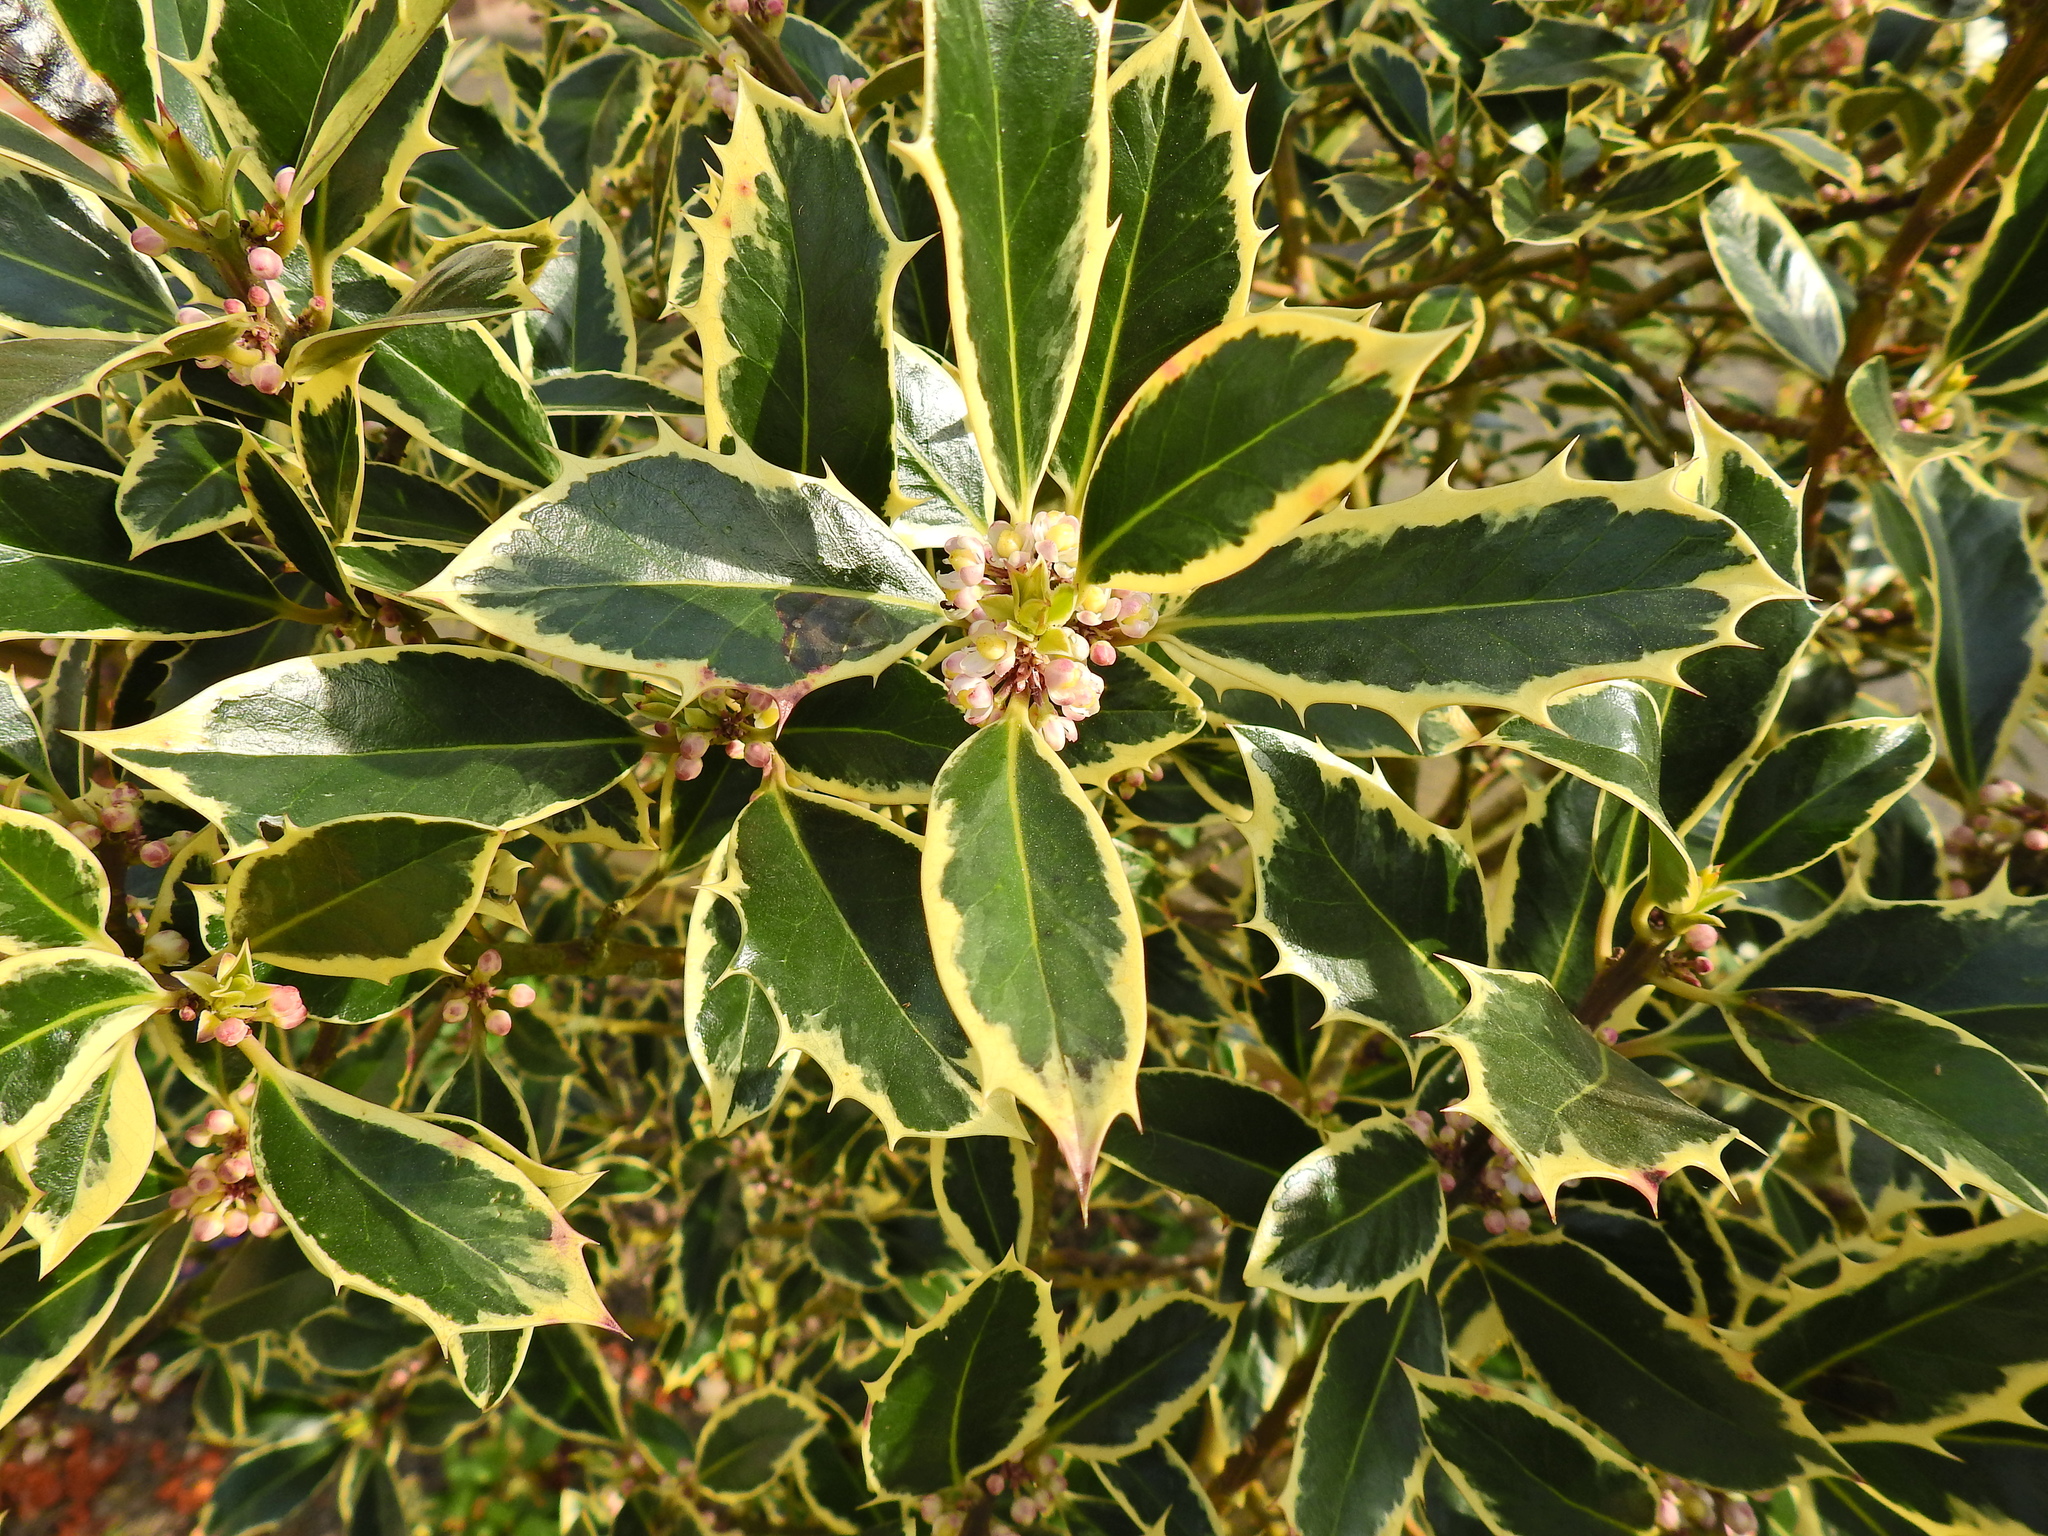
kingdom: Plantae
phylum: Tracheophyta
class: Magnoliopsida
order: Aquifoliales
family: Aquifoliaceae
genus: Ilex
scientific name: Ilex aquifolium
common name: English holly
